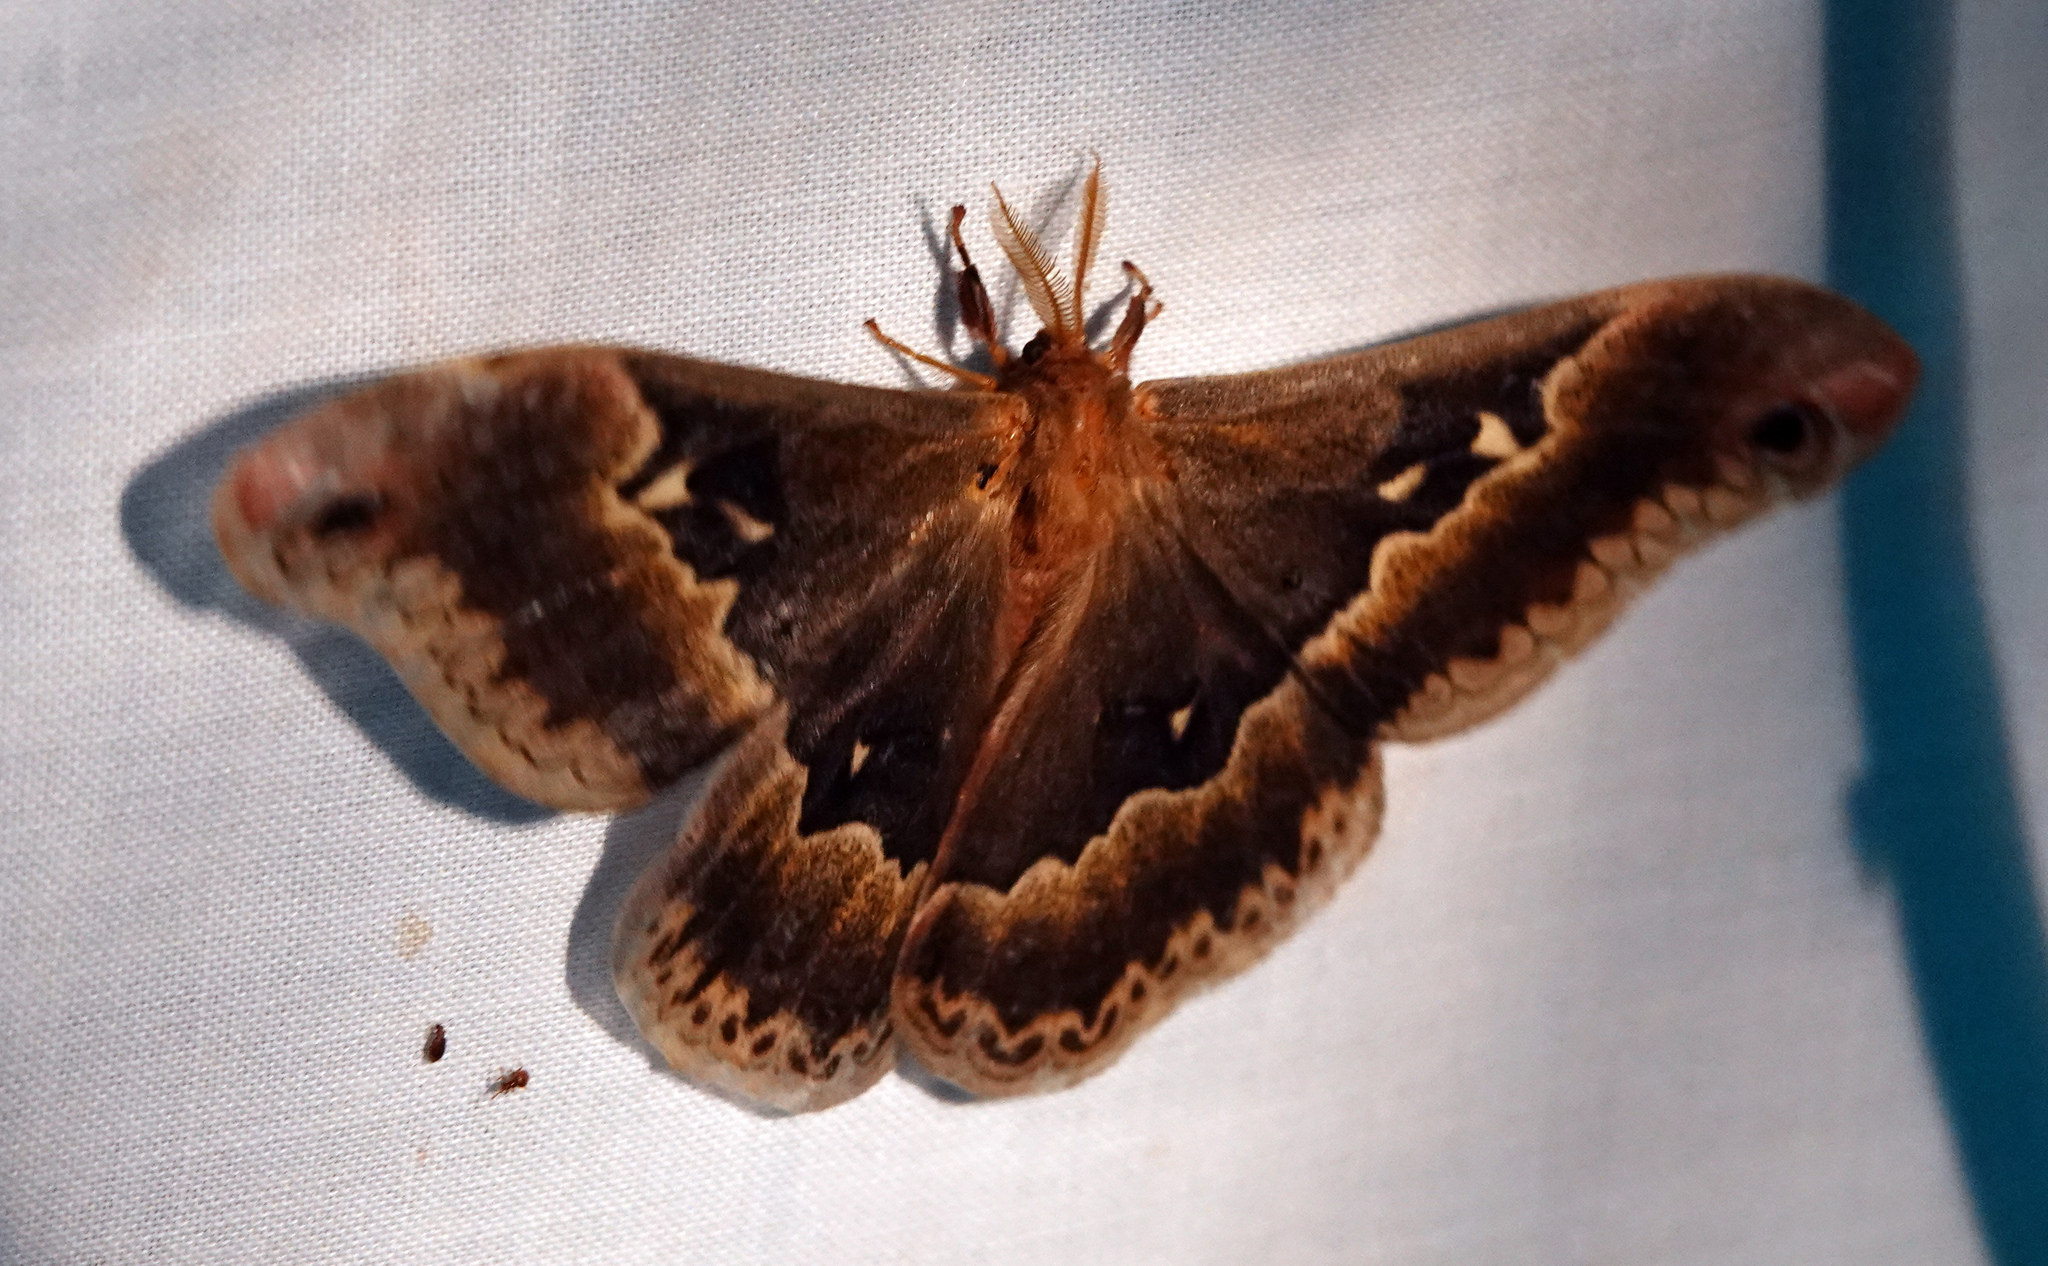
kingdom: Animalia
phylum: Arthropoda
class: Insecta
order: Lepidoptera
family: Saturniidae
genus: Callosamia
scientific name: Callosamia angulifera
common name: Tulip tree silkmoth
